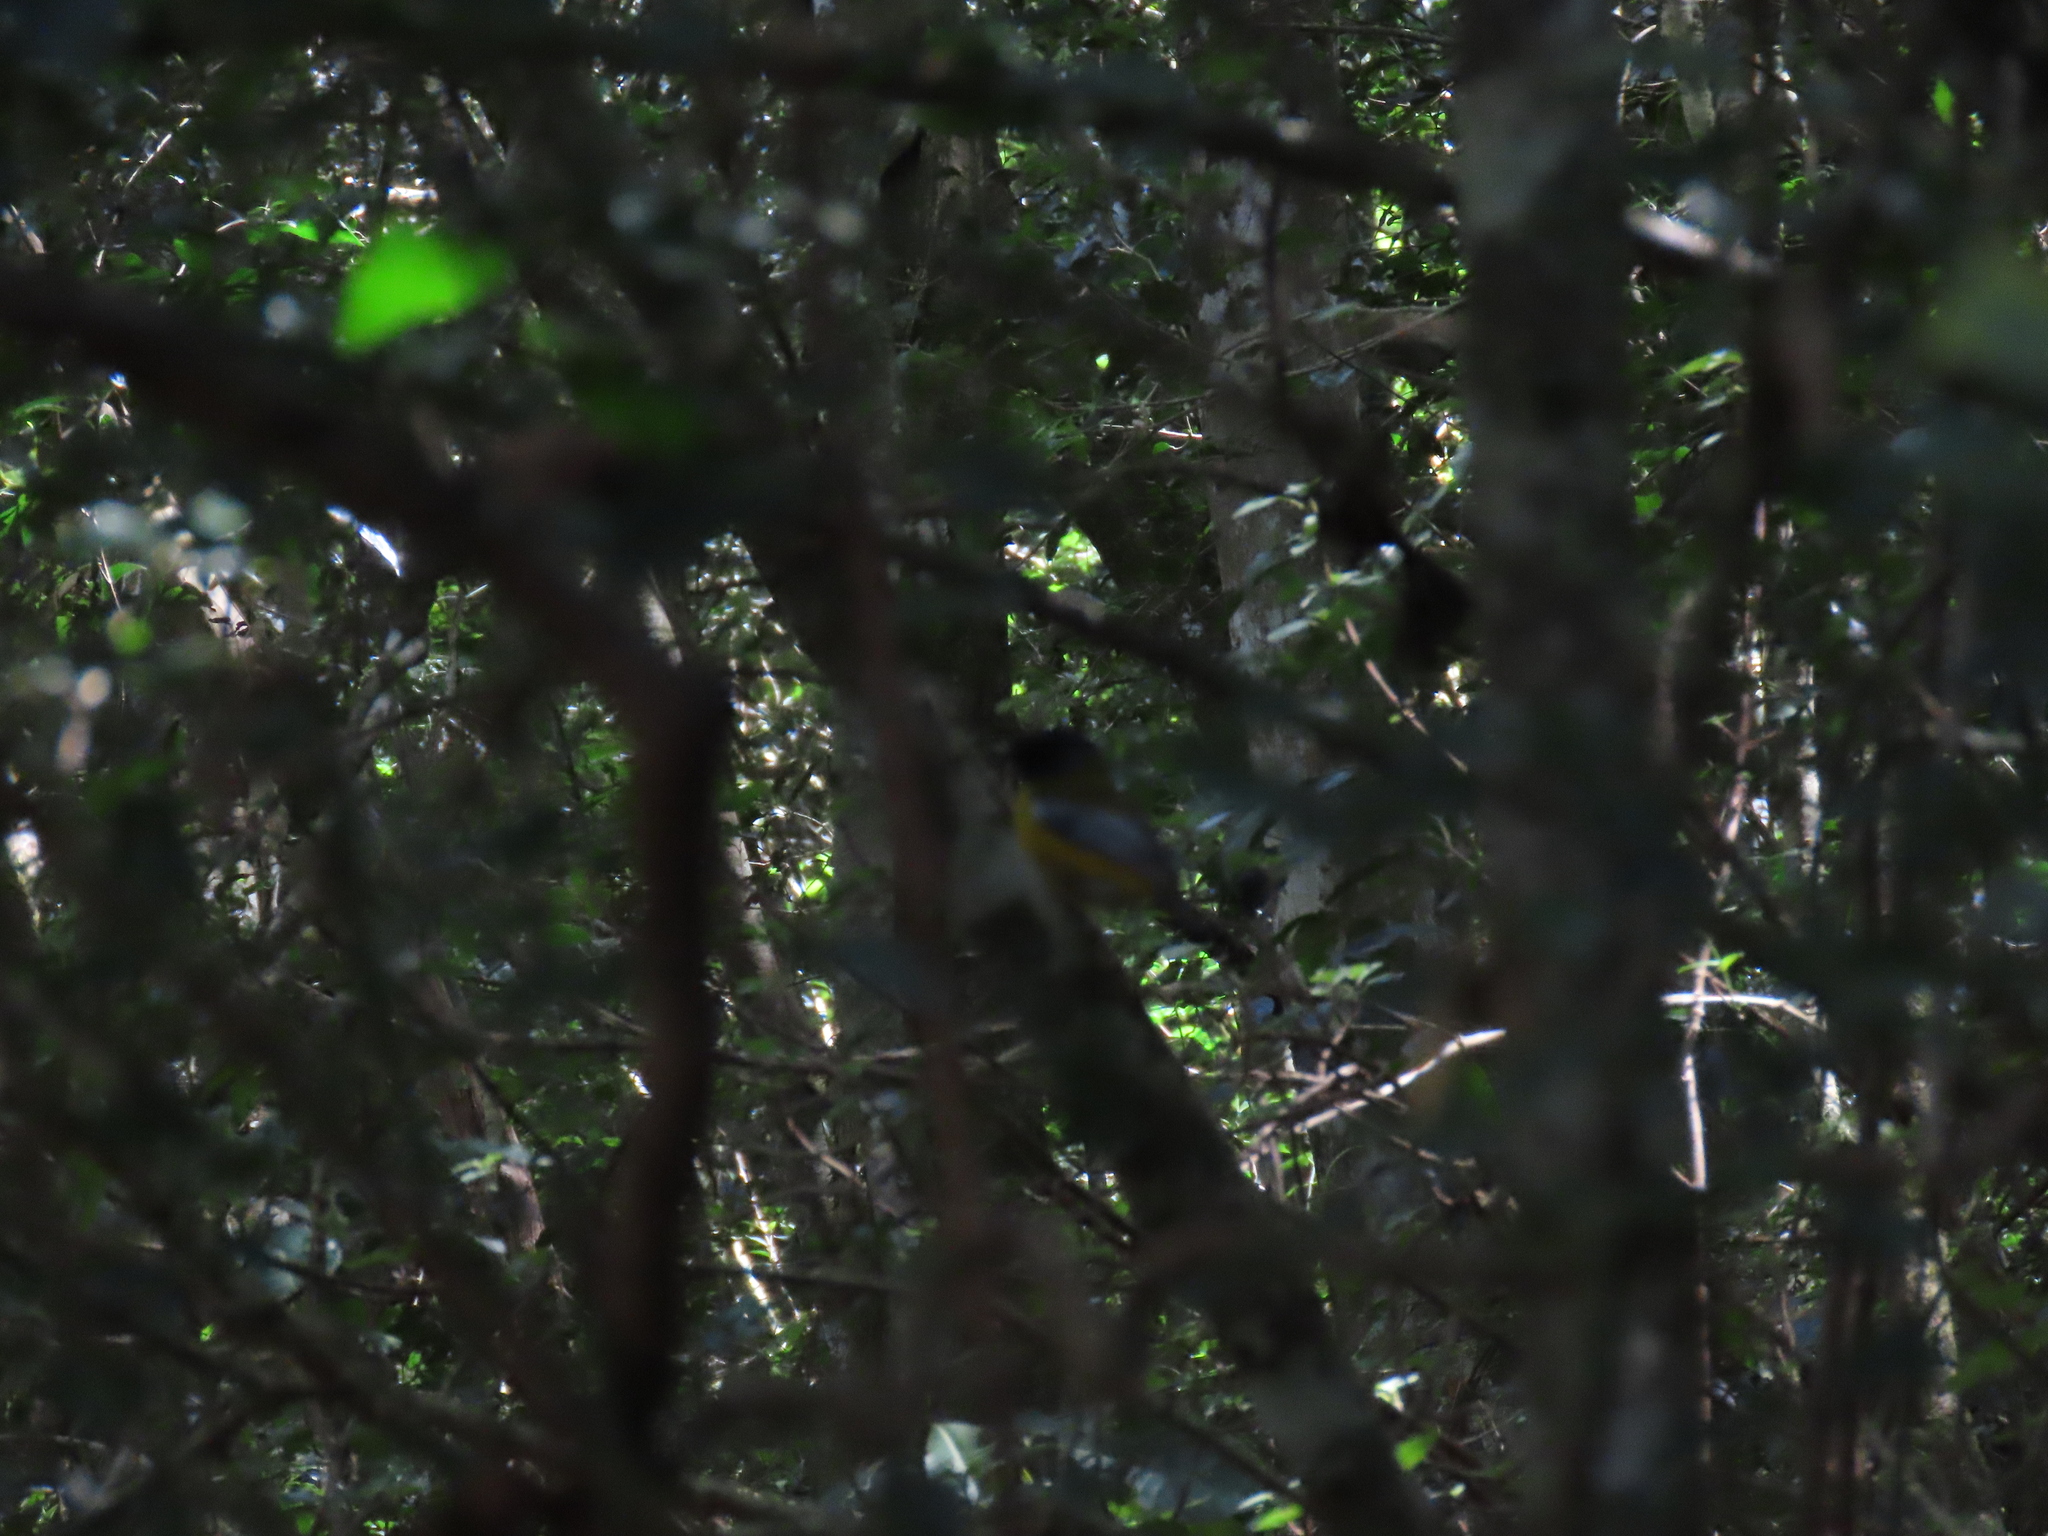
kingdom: Animalia
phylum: Chordata
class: Aves
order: Passeriformes
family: Muscicapidae
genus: Pogonocichla
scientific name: Pogonocichla stellata
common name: White-starred robin
